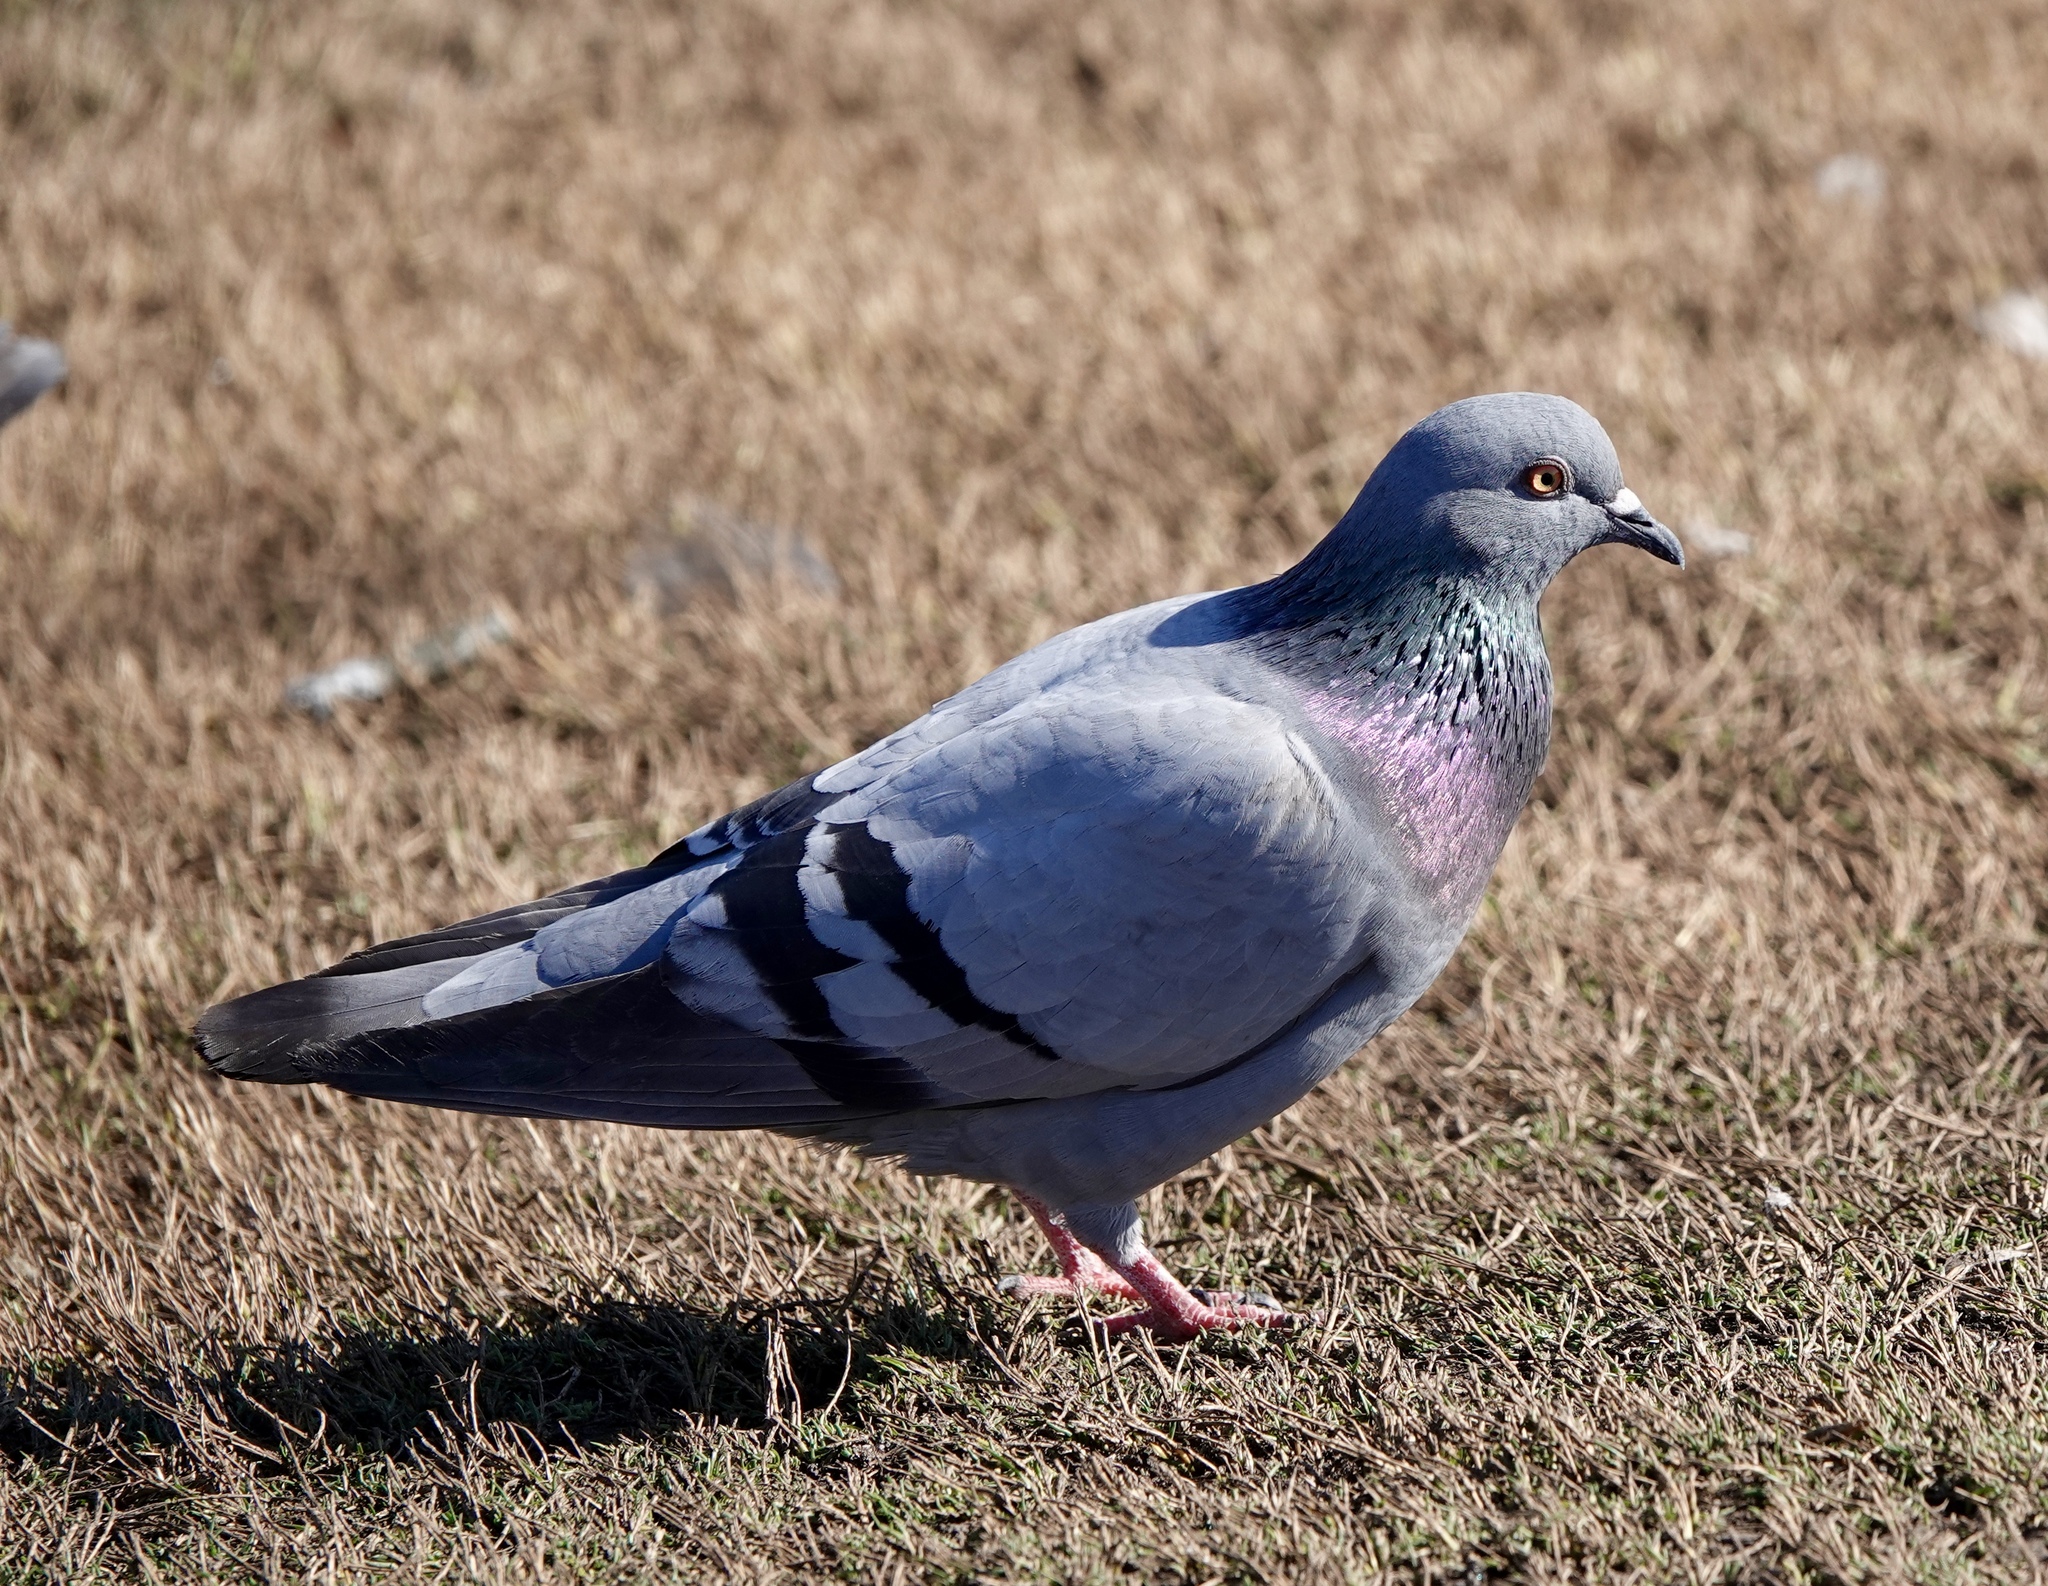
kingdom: Animalia
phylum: Chordata
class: Aves
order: Columbiformes
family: Columbidae
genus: Columba
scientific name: Columba livia
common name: Rock pigeon
